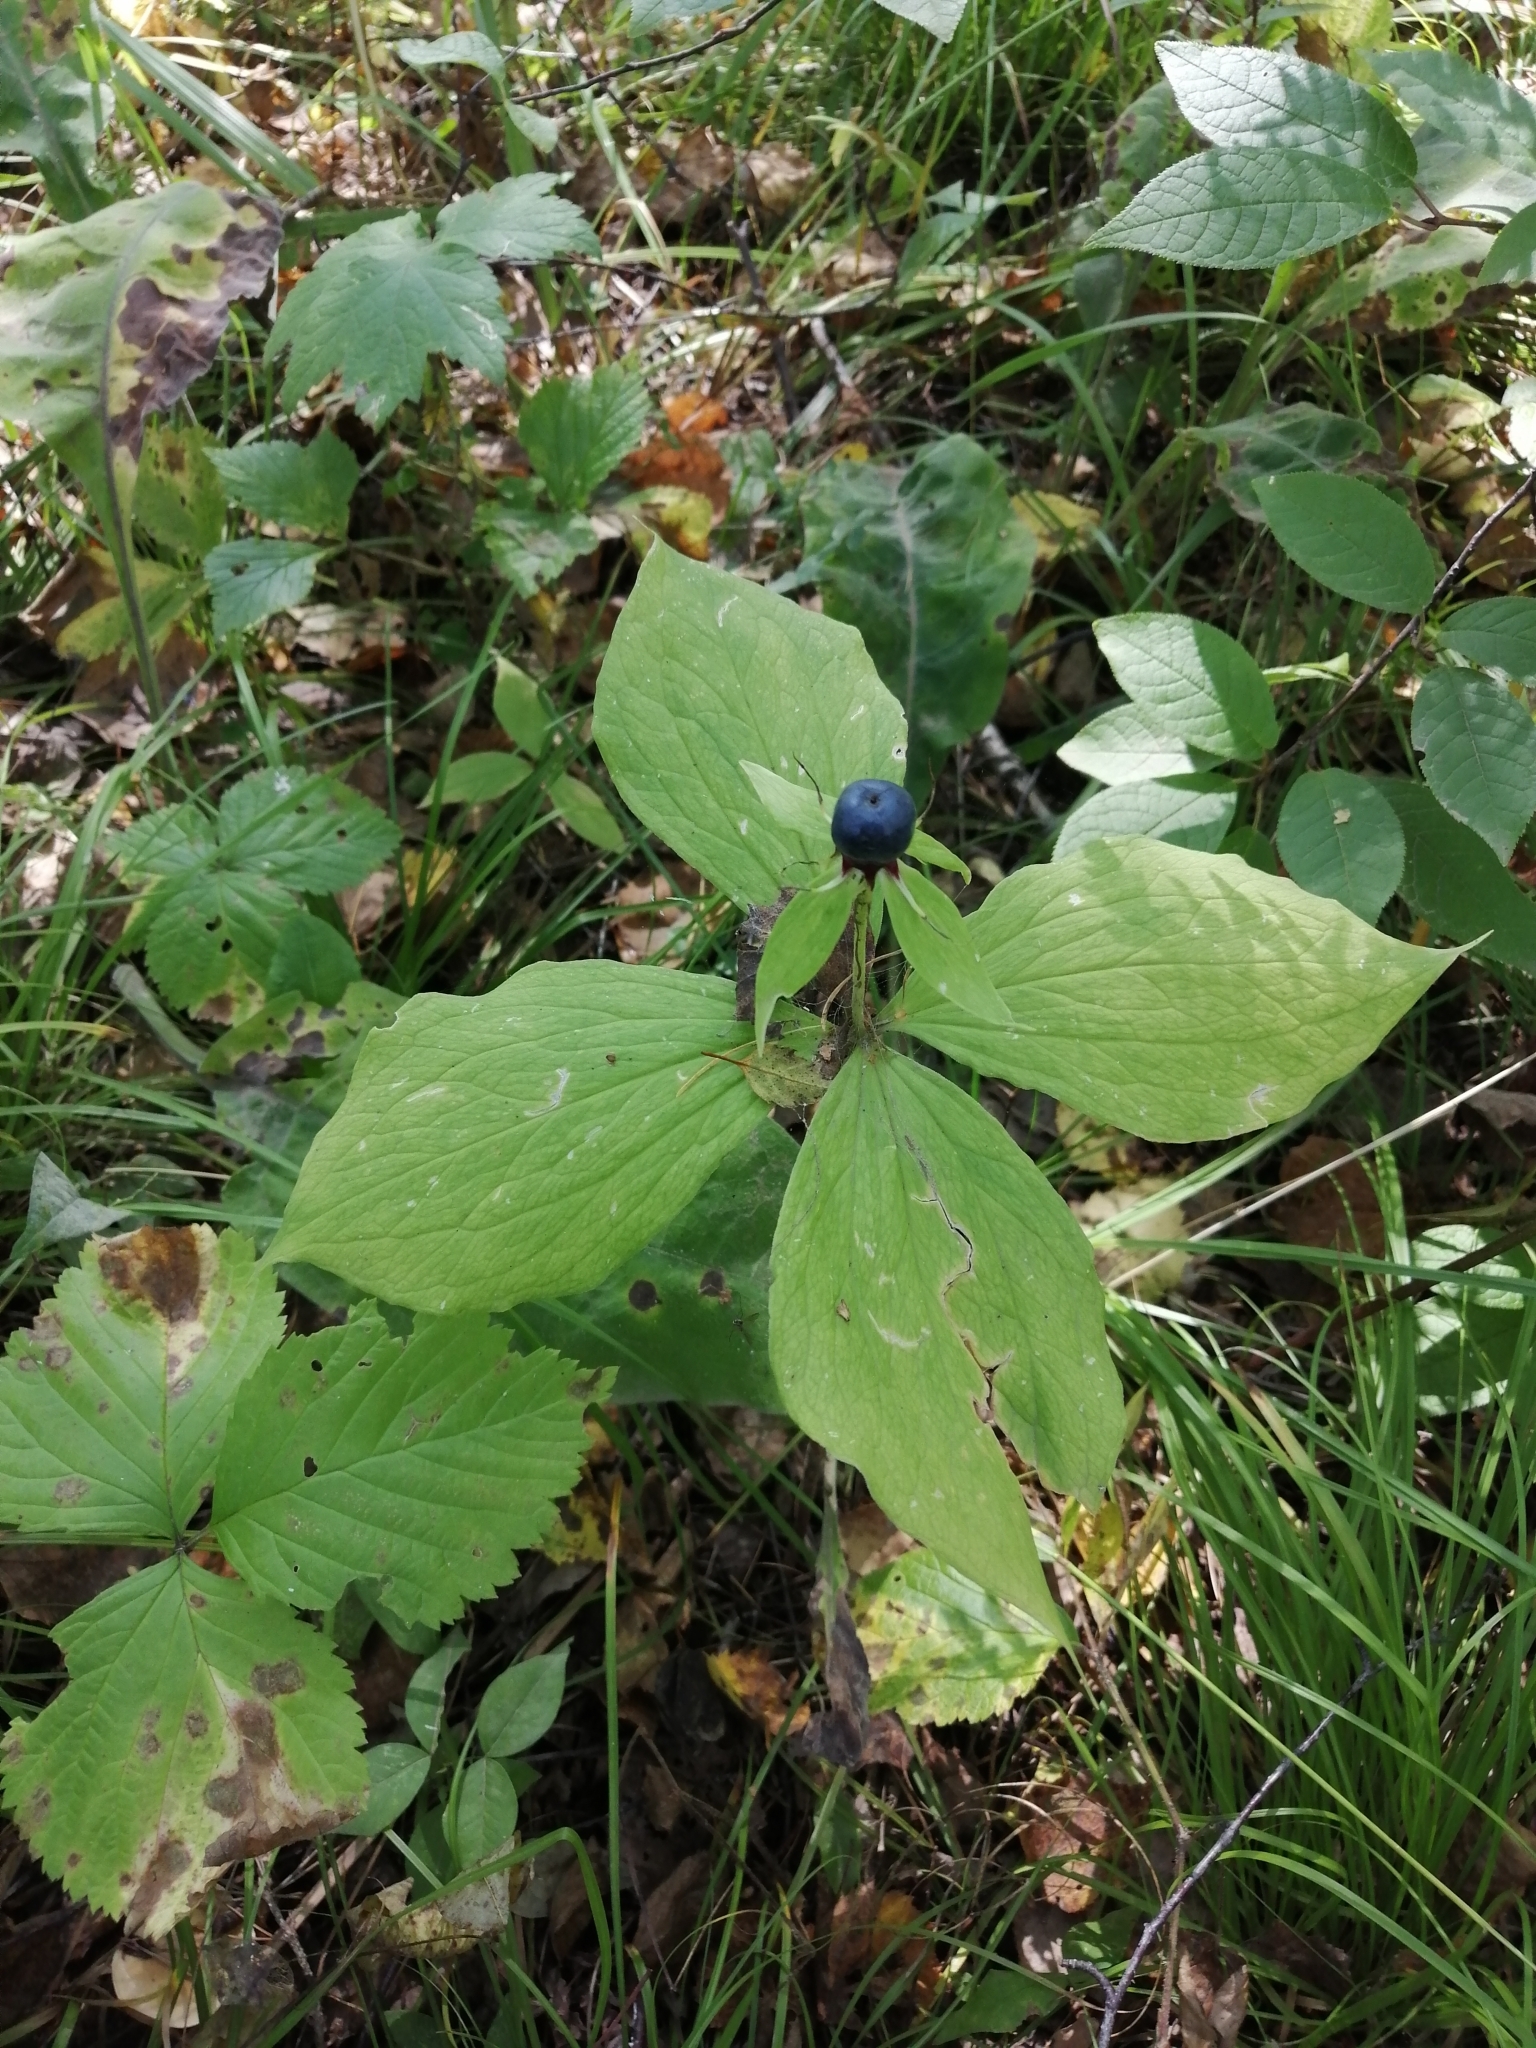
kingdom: Plantae
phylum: Tracheophyta
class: Liliopsida
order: Liliales
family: Melanthiaceae
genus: Paris
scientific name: Paris quadrifolia
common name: Herb-paris
